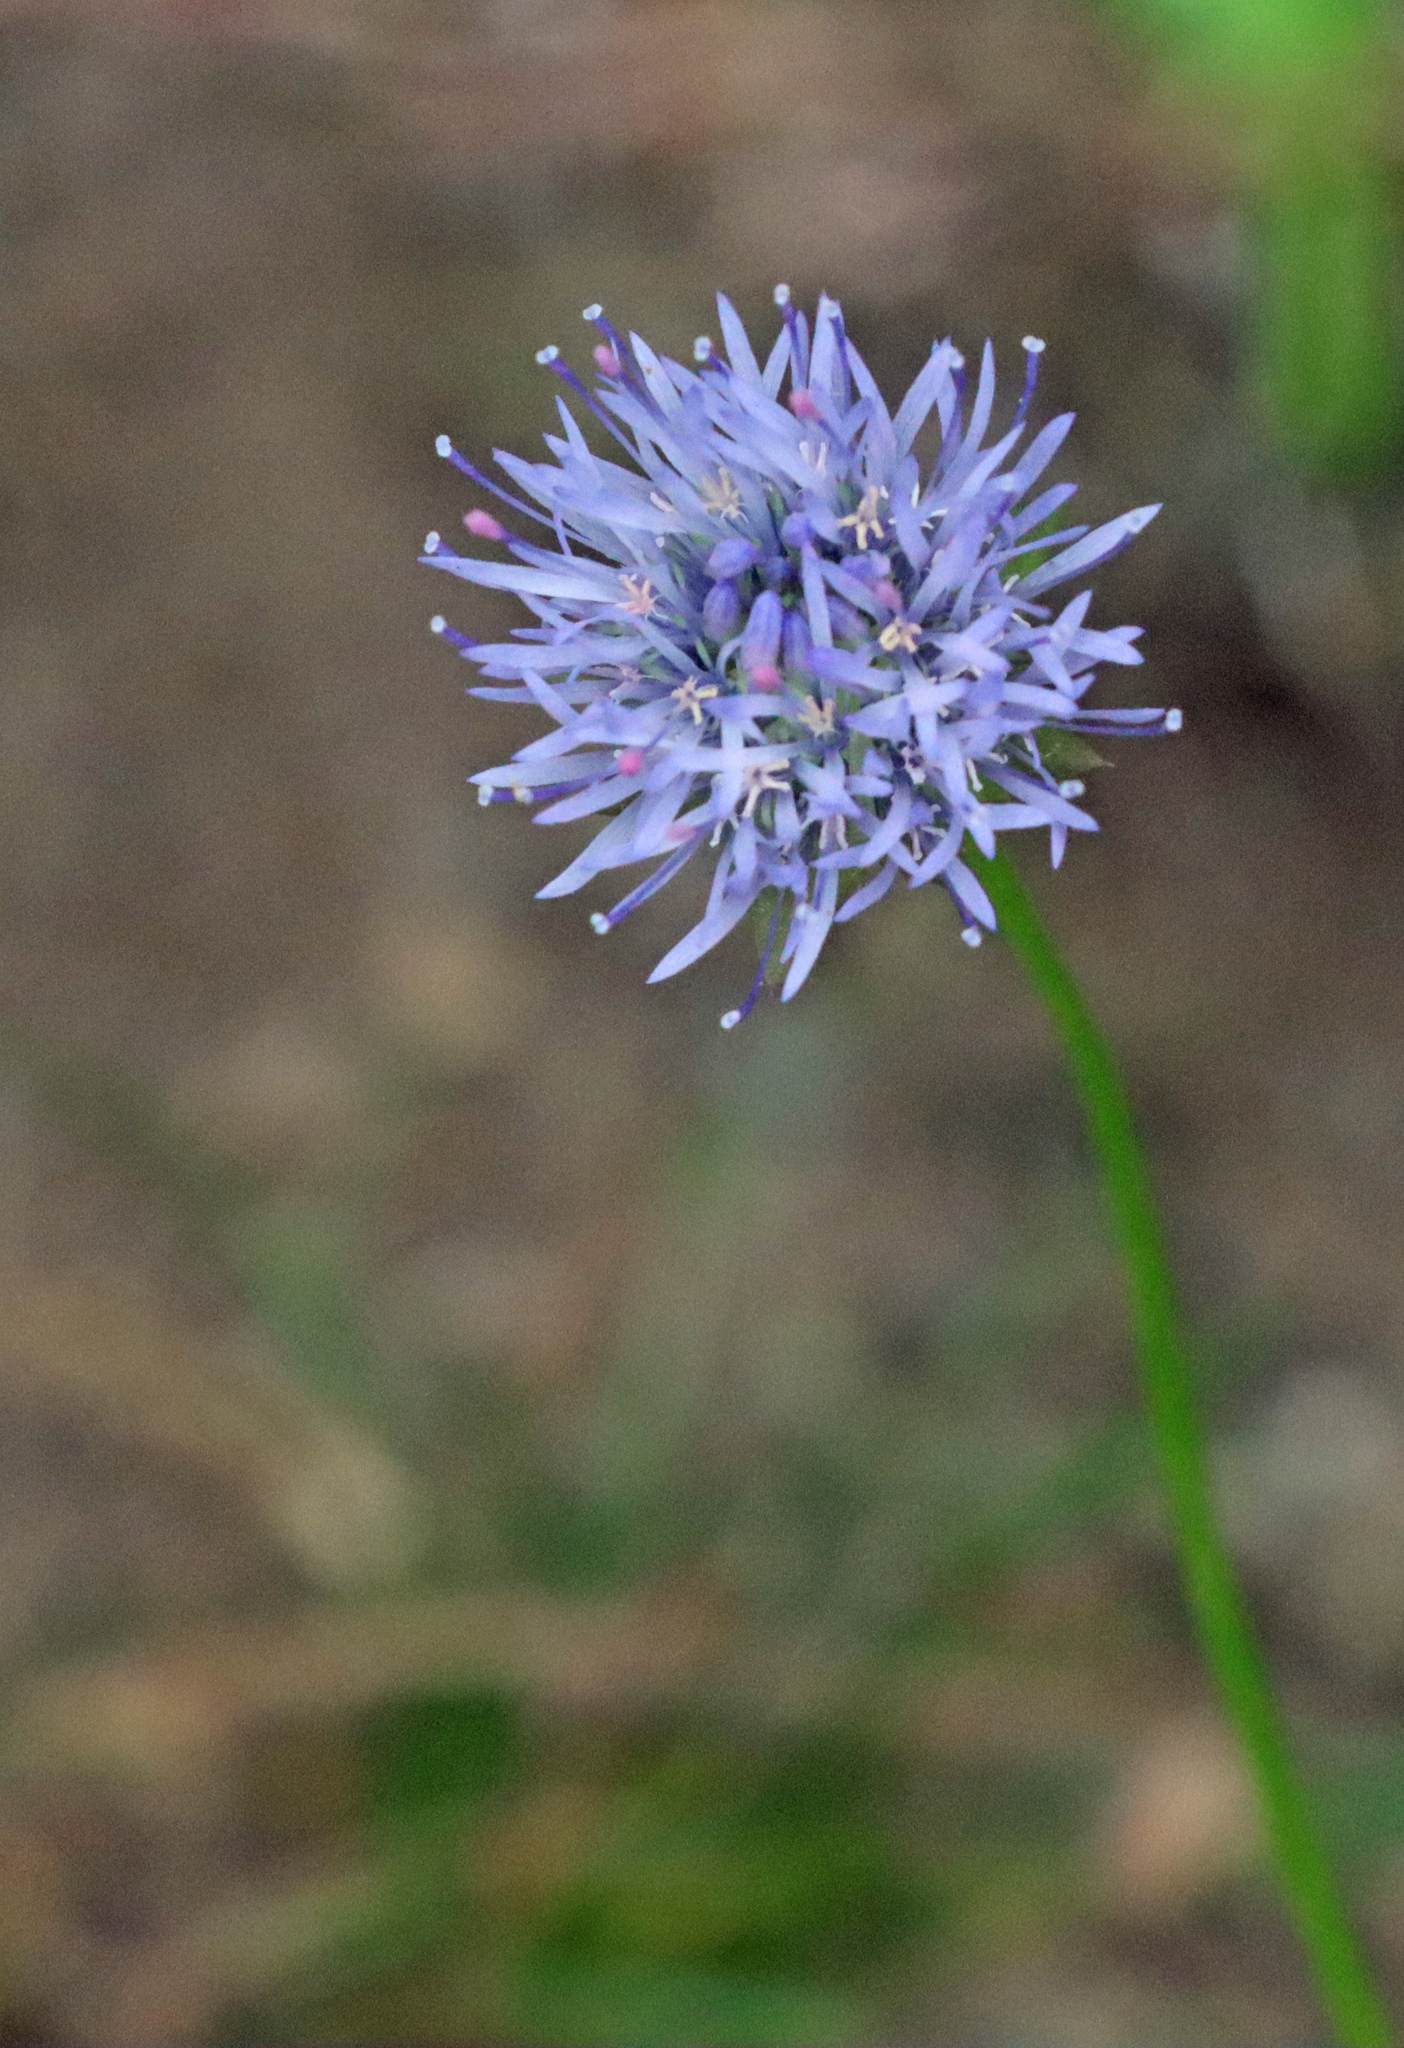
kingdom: Plantae
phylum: Tracheophyta
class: Magnoliopsida
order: Asterales
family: Campanulaceae
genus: Jasione
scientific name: Jasione montana
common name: Sheep's-bit
